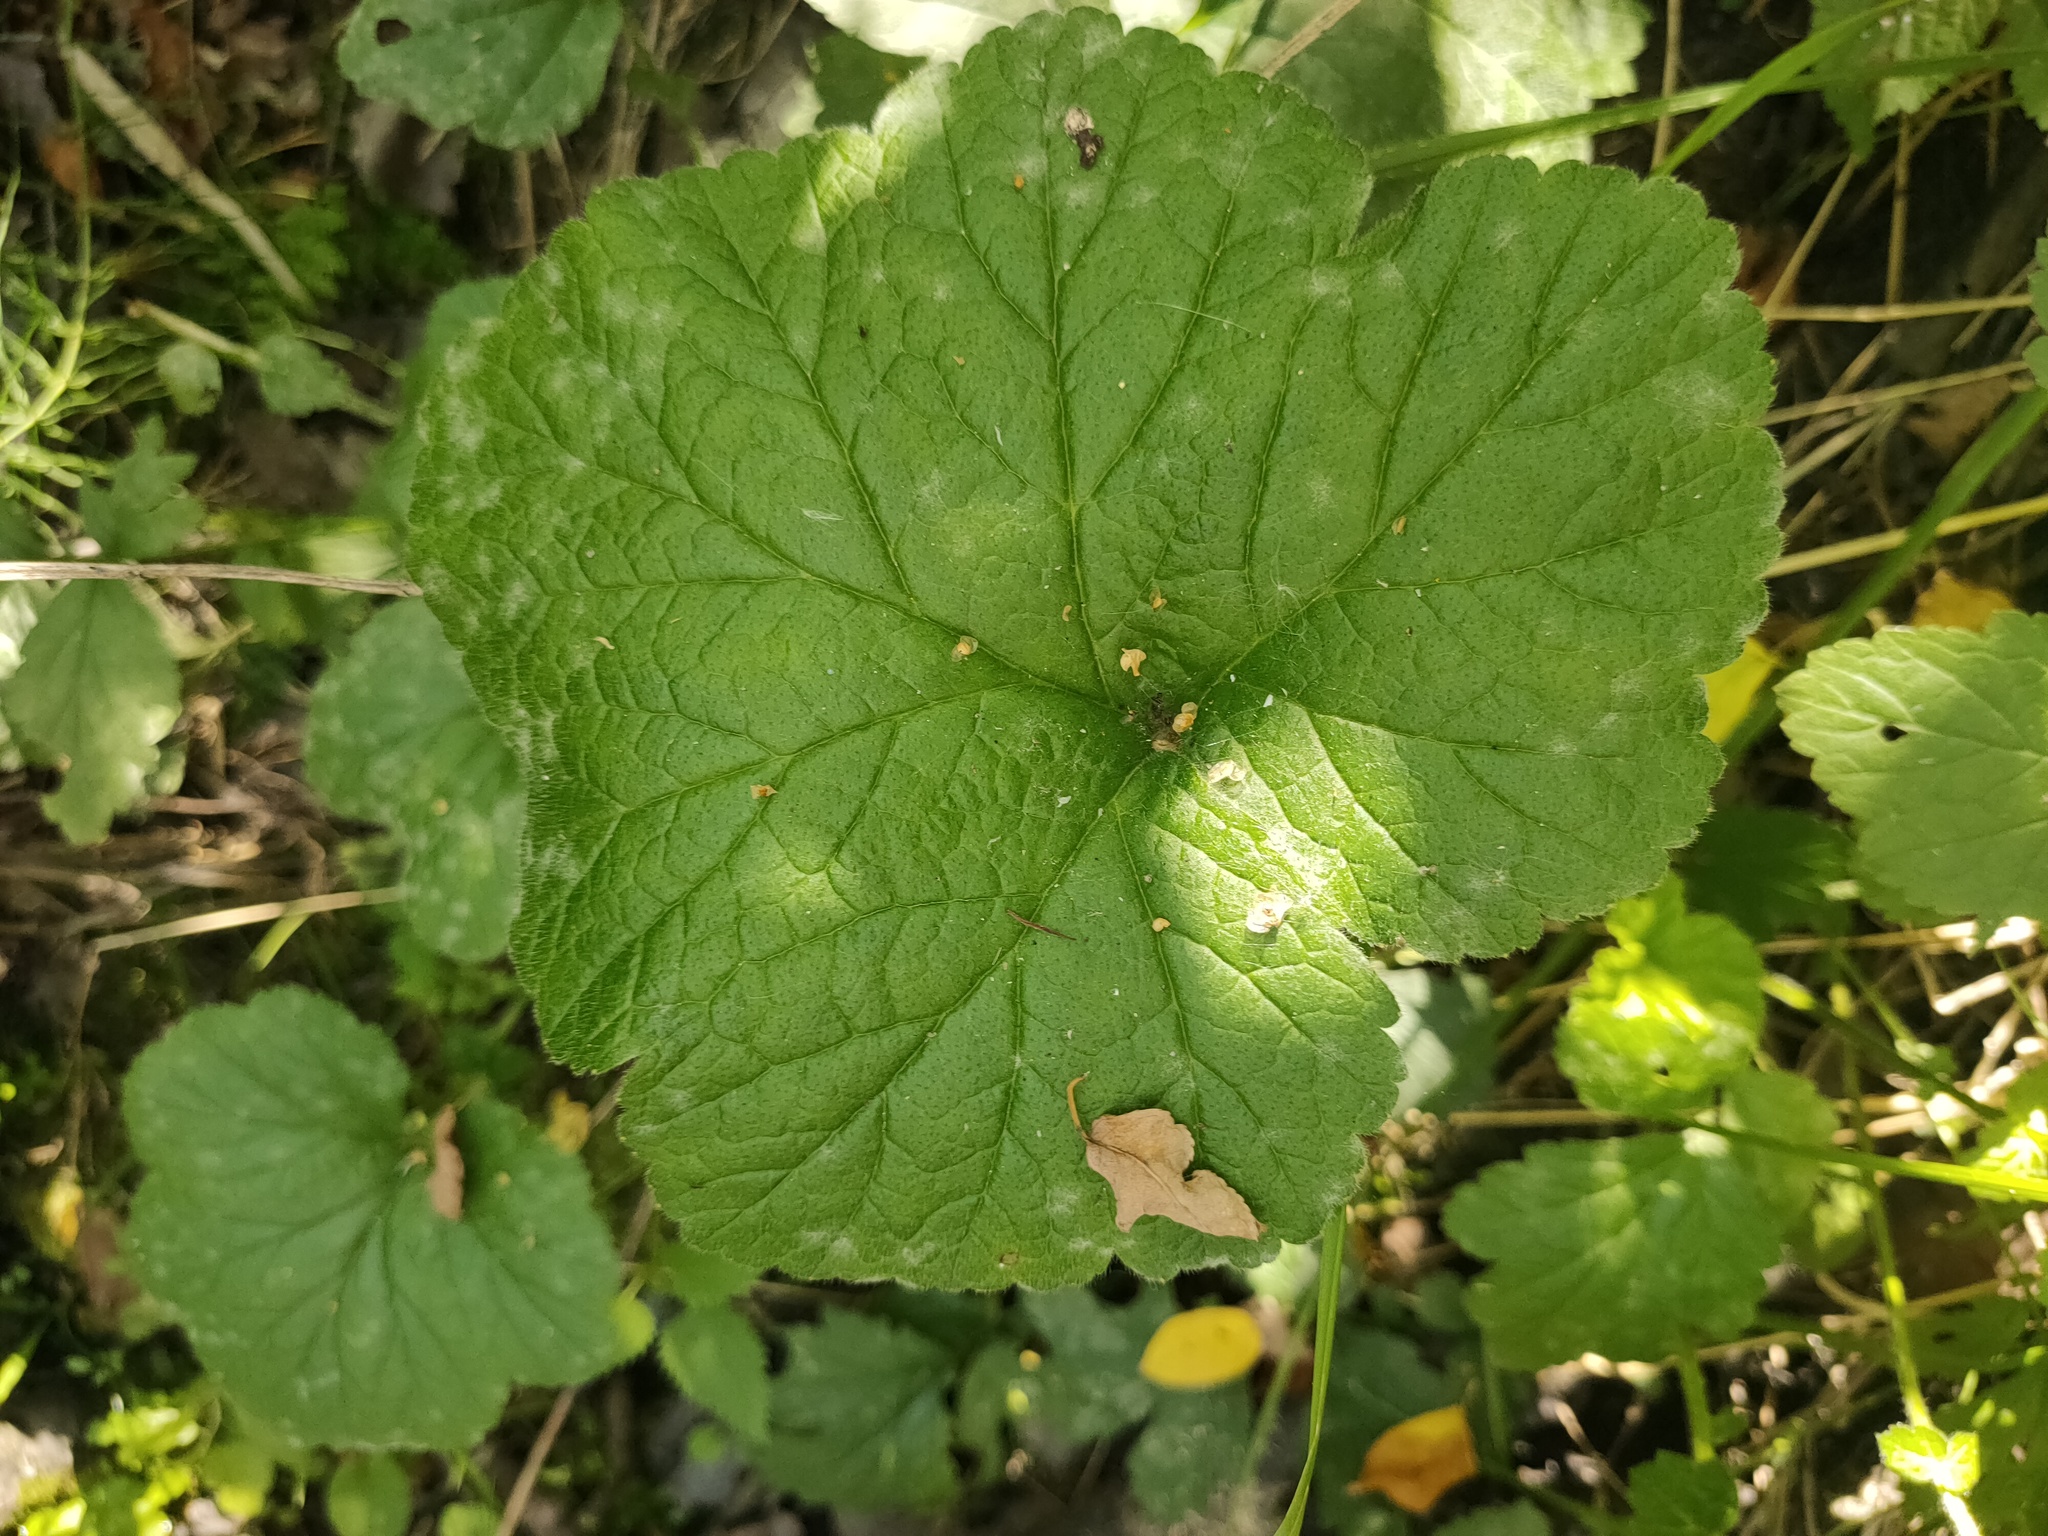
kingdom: Plantae
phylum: Tracheophyta
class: Magnoliopsida
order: Rosales
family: Rosaceae
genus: Geum
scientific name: Geum
